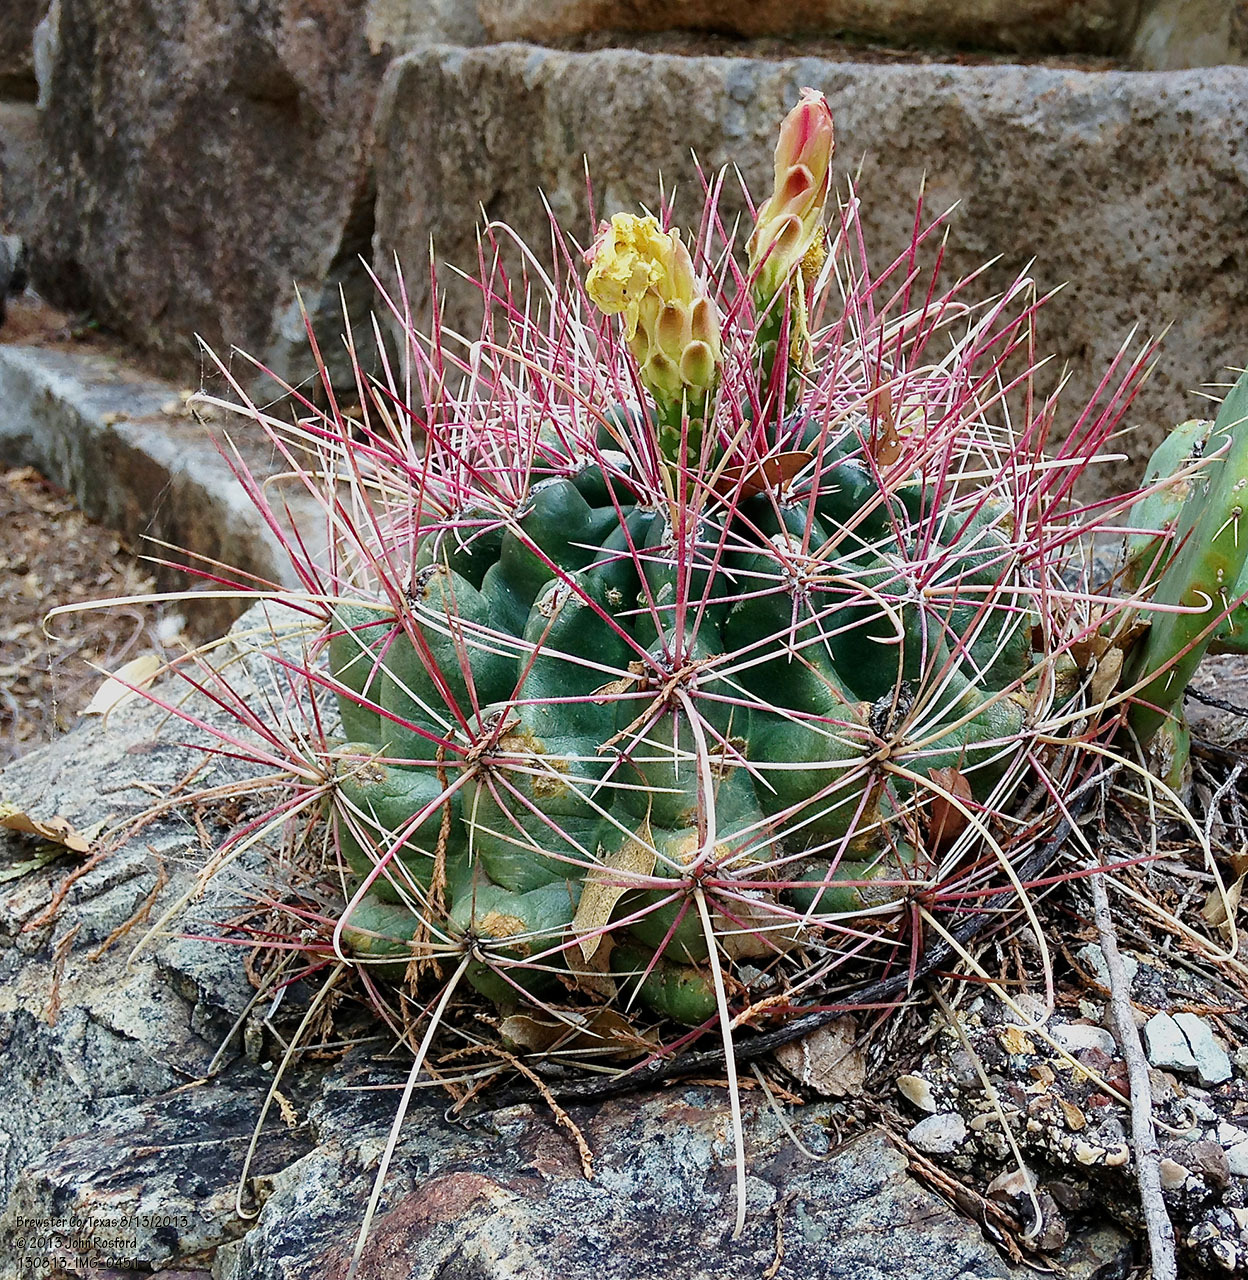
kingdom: Plantae
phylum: Tracheophyta
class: Magnoliopsida
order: Caryophyllales
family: Cactaceae
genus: Bisnaga
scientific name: Bisnaga hamatacantha
